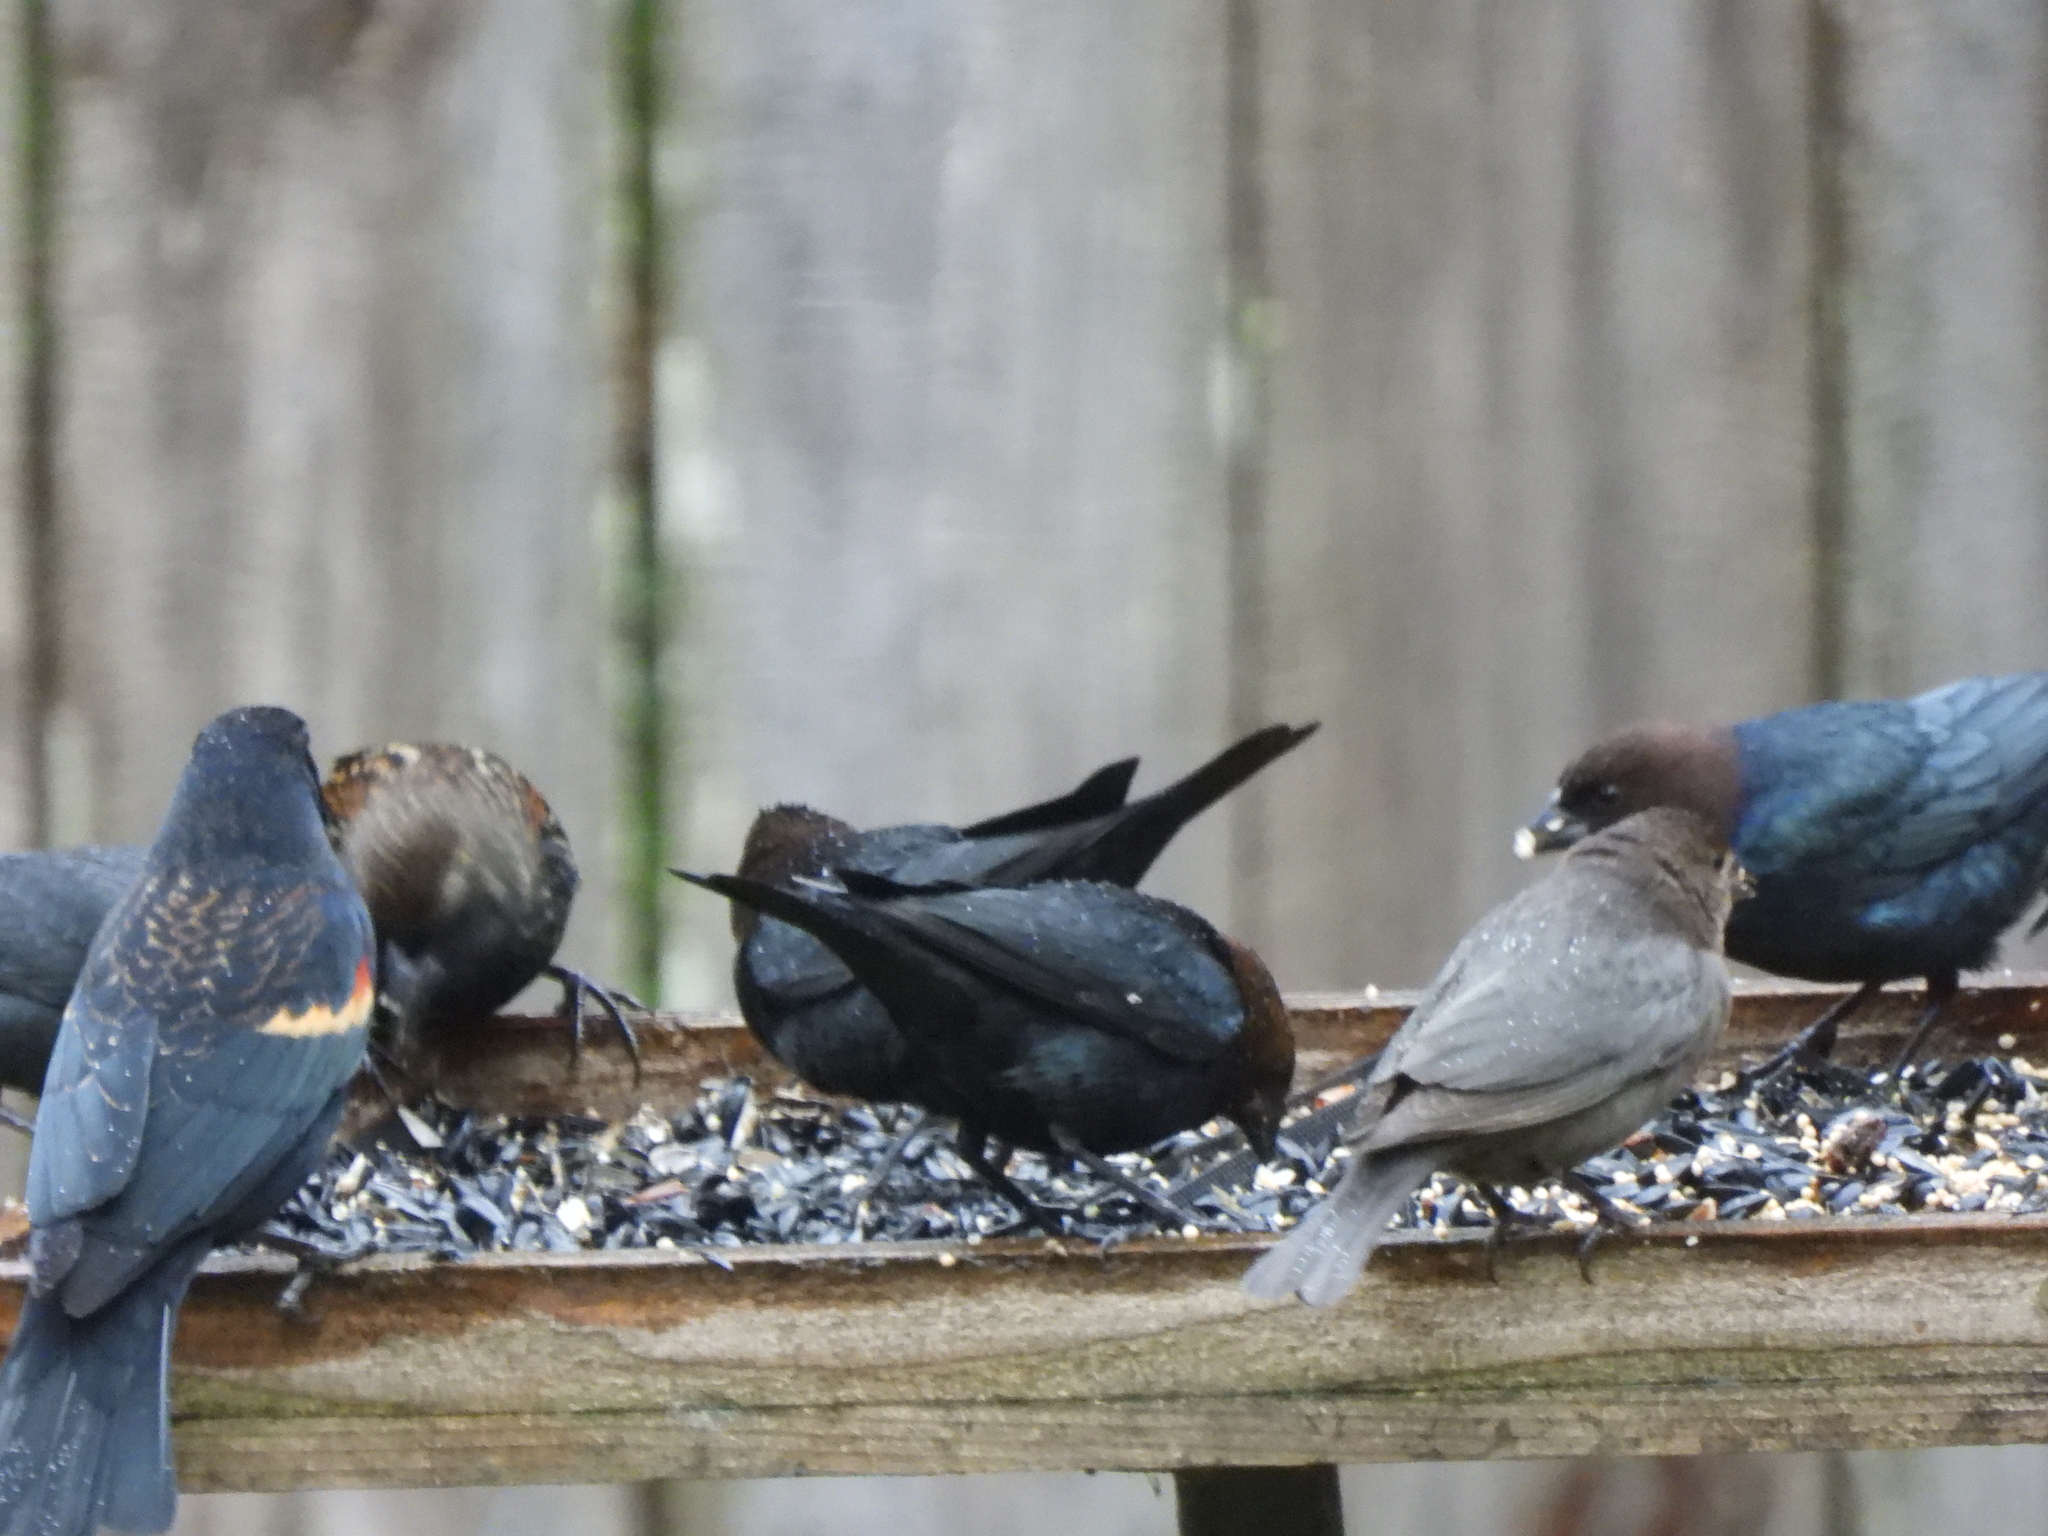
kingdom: Animalia
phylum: Chordata
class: Aves
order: Passeriformes
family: Icteridae
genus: Molothrus
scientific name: Molothrus ater
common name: Brown-headed cowbird
